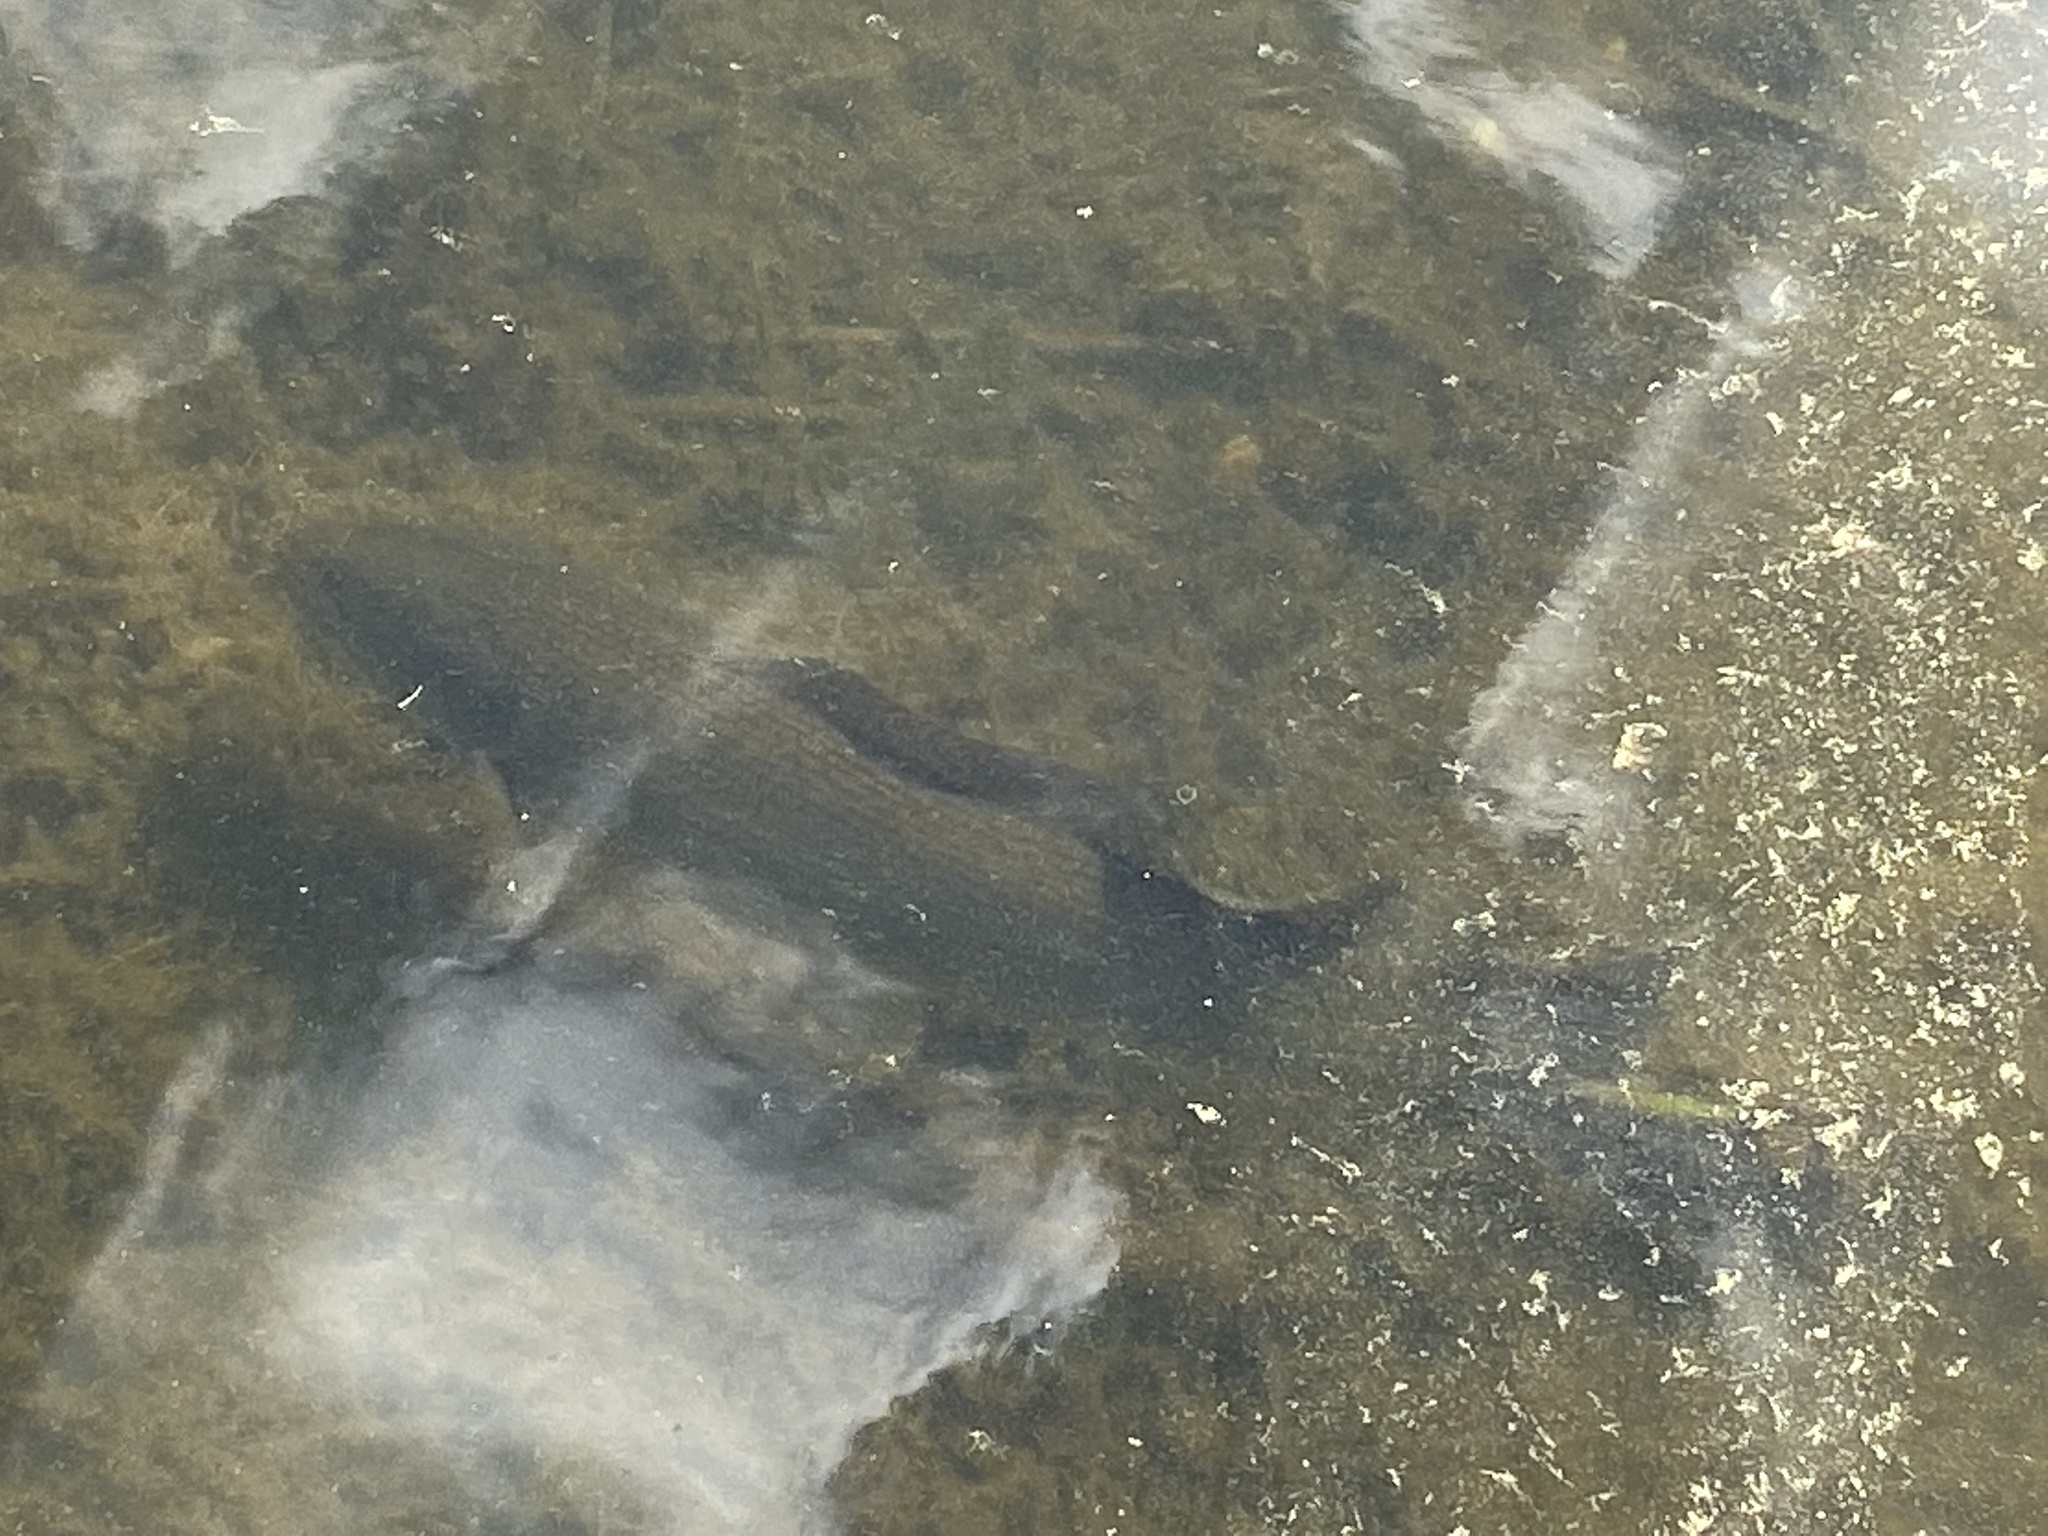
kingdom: Animalia
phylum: Chordata
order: Amiiformes
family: Amiidae
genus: Amia
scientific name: Amia calva
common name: Bowfin
